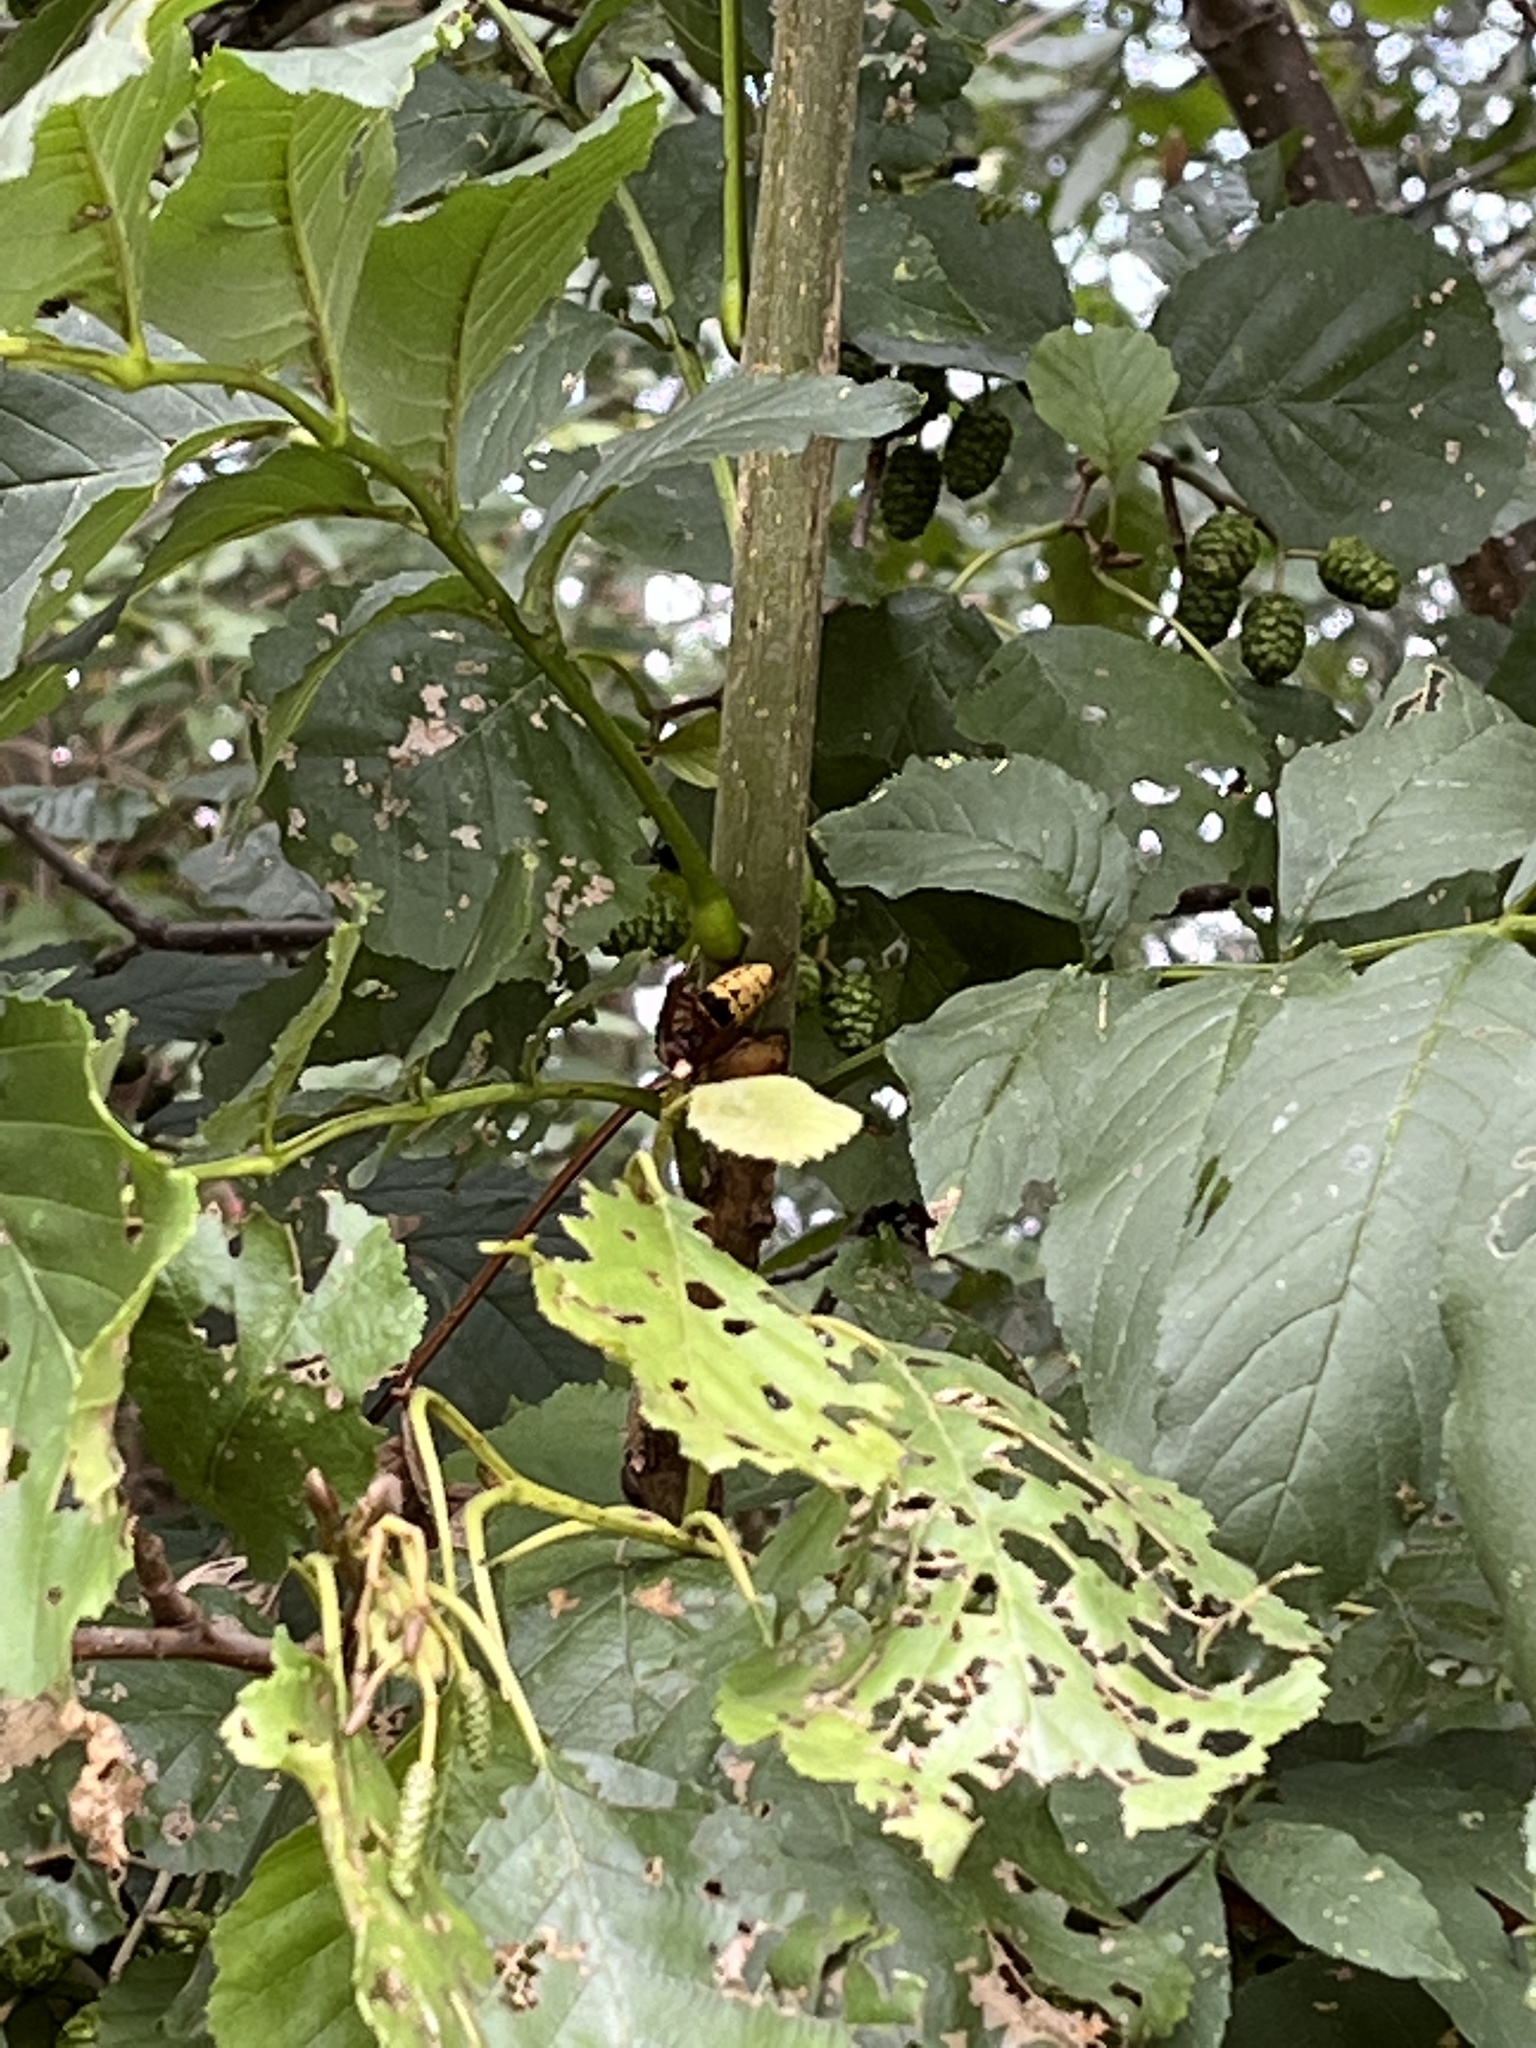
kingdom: Animalia
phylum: Arthropoda
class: Insecta
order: Hymenoptera
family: Vespidae
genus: Vespa
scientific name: Vespa crabro
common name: Hornet
